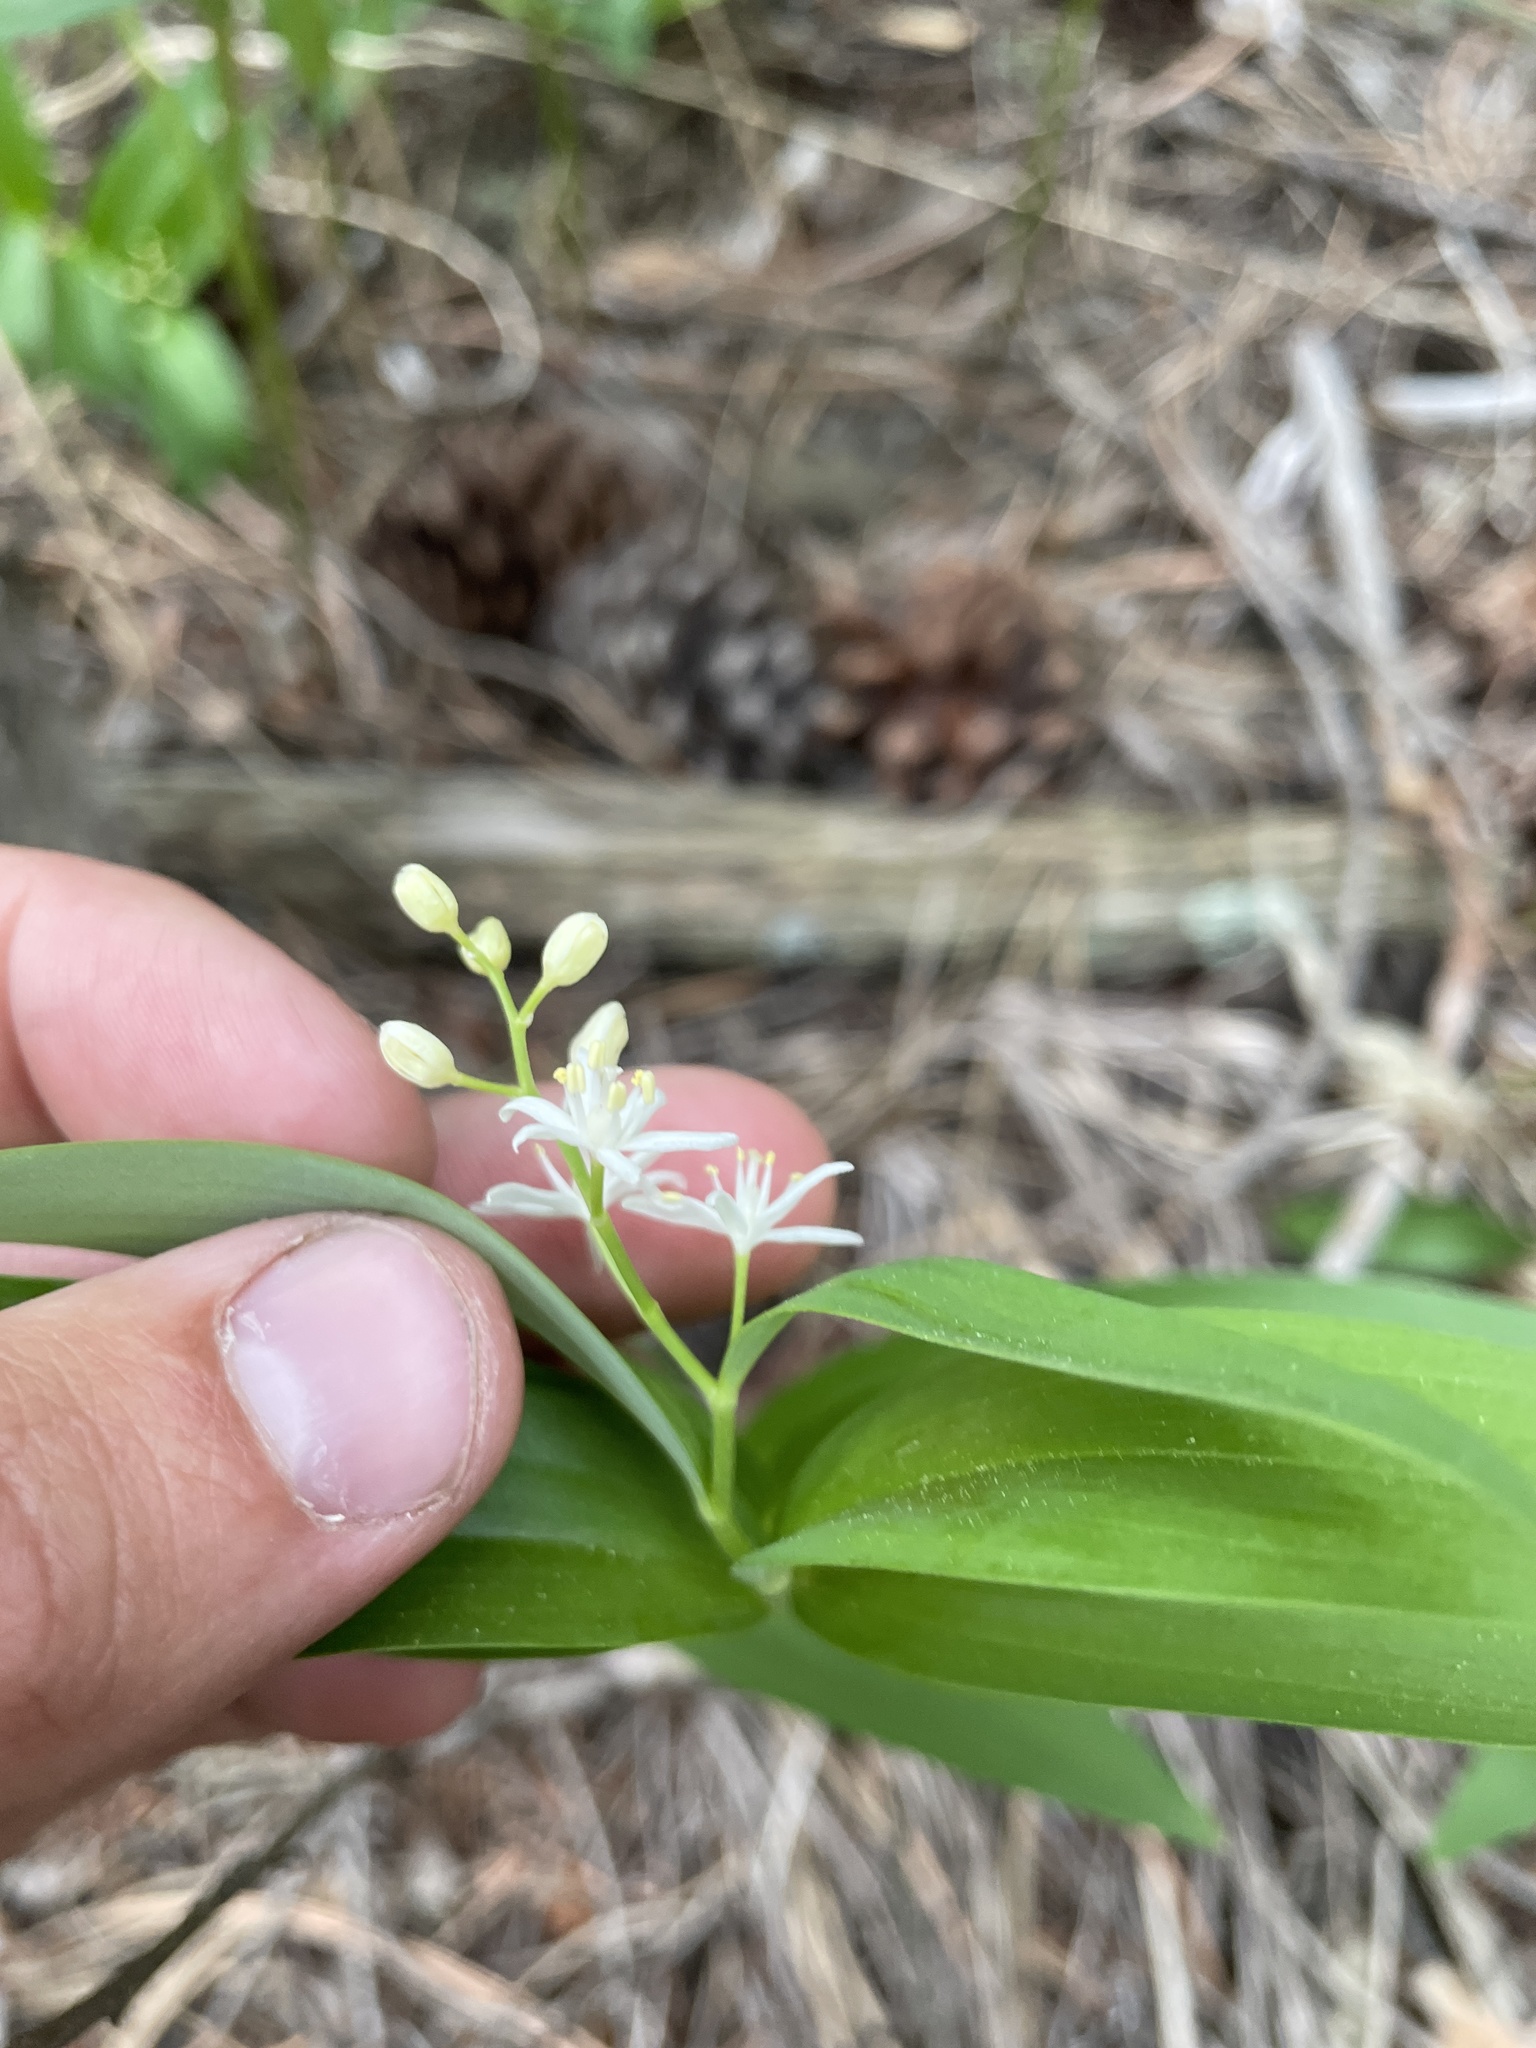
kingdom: Plantae
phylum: Tracheophyta
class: Liliopsida
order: Asparagales
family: Asparagaceae
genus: Maianthemum
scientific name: Maianthemum stellatum
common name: Little false solomon's seal
